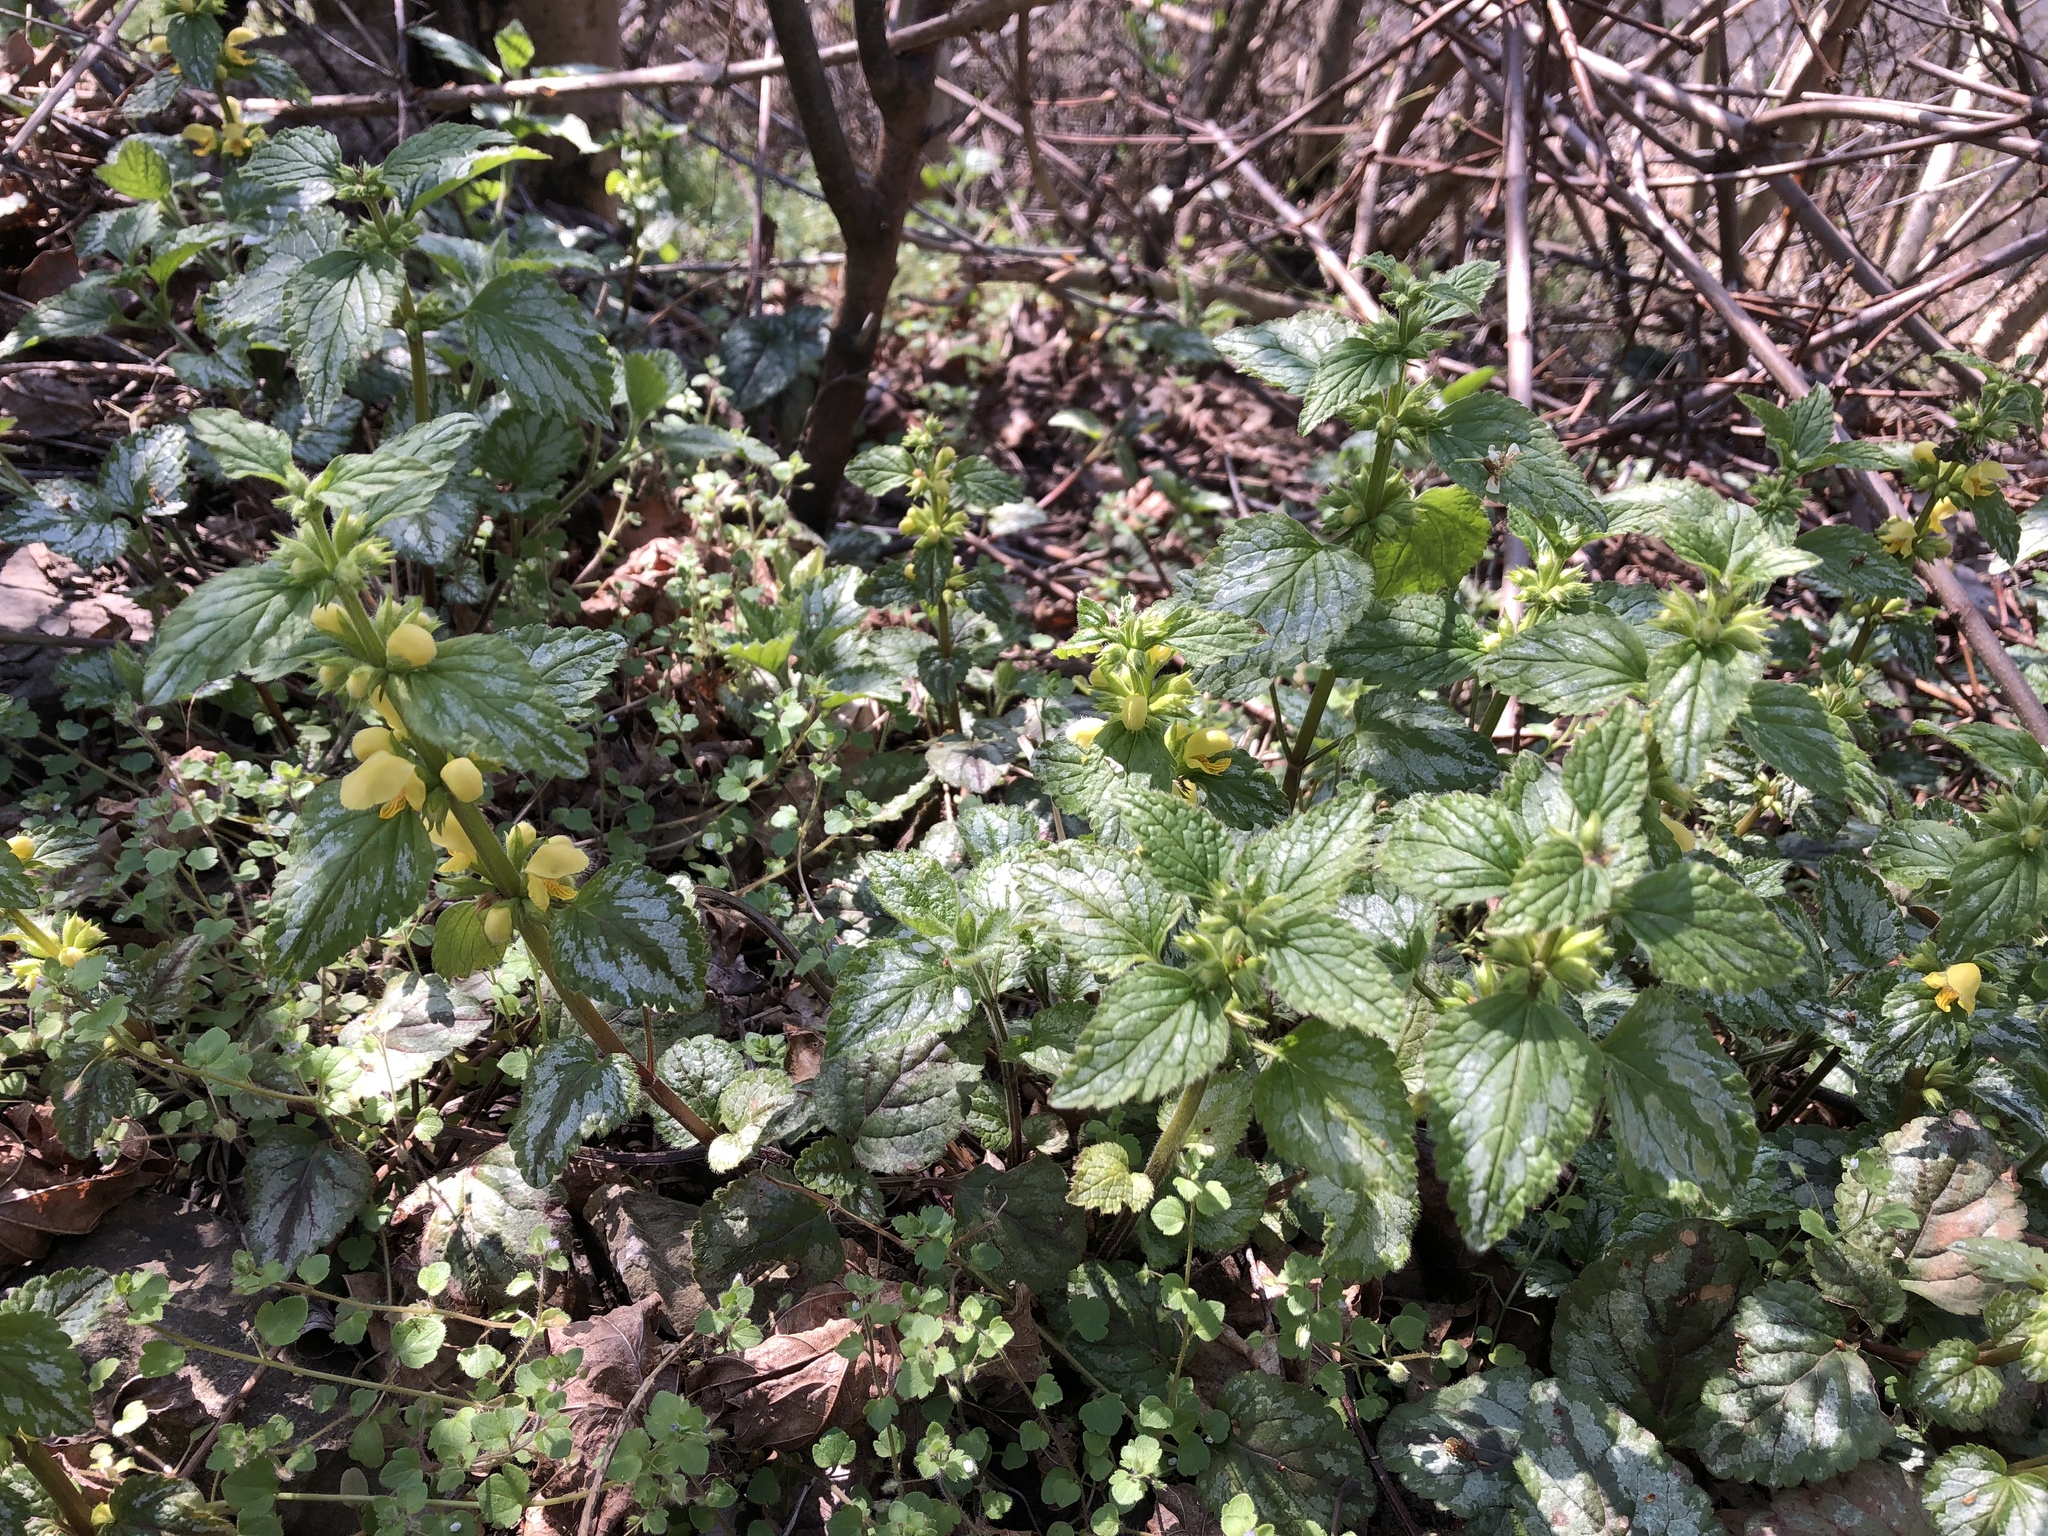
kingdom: Plantae
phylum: Tracheophyta
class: Magnoliopsida
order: Lamiales
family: Lamiaceae
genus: Lamium
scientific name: Lamium galeobdolon
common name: Yellow archangel
